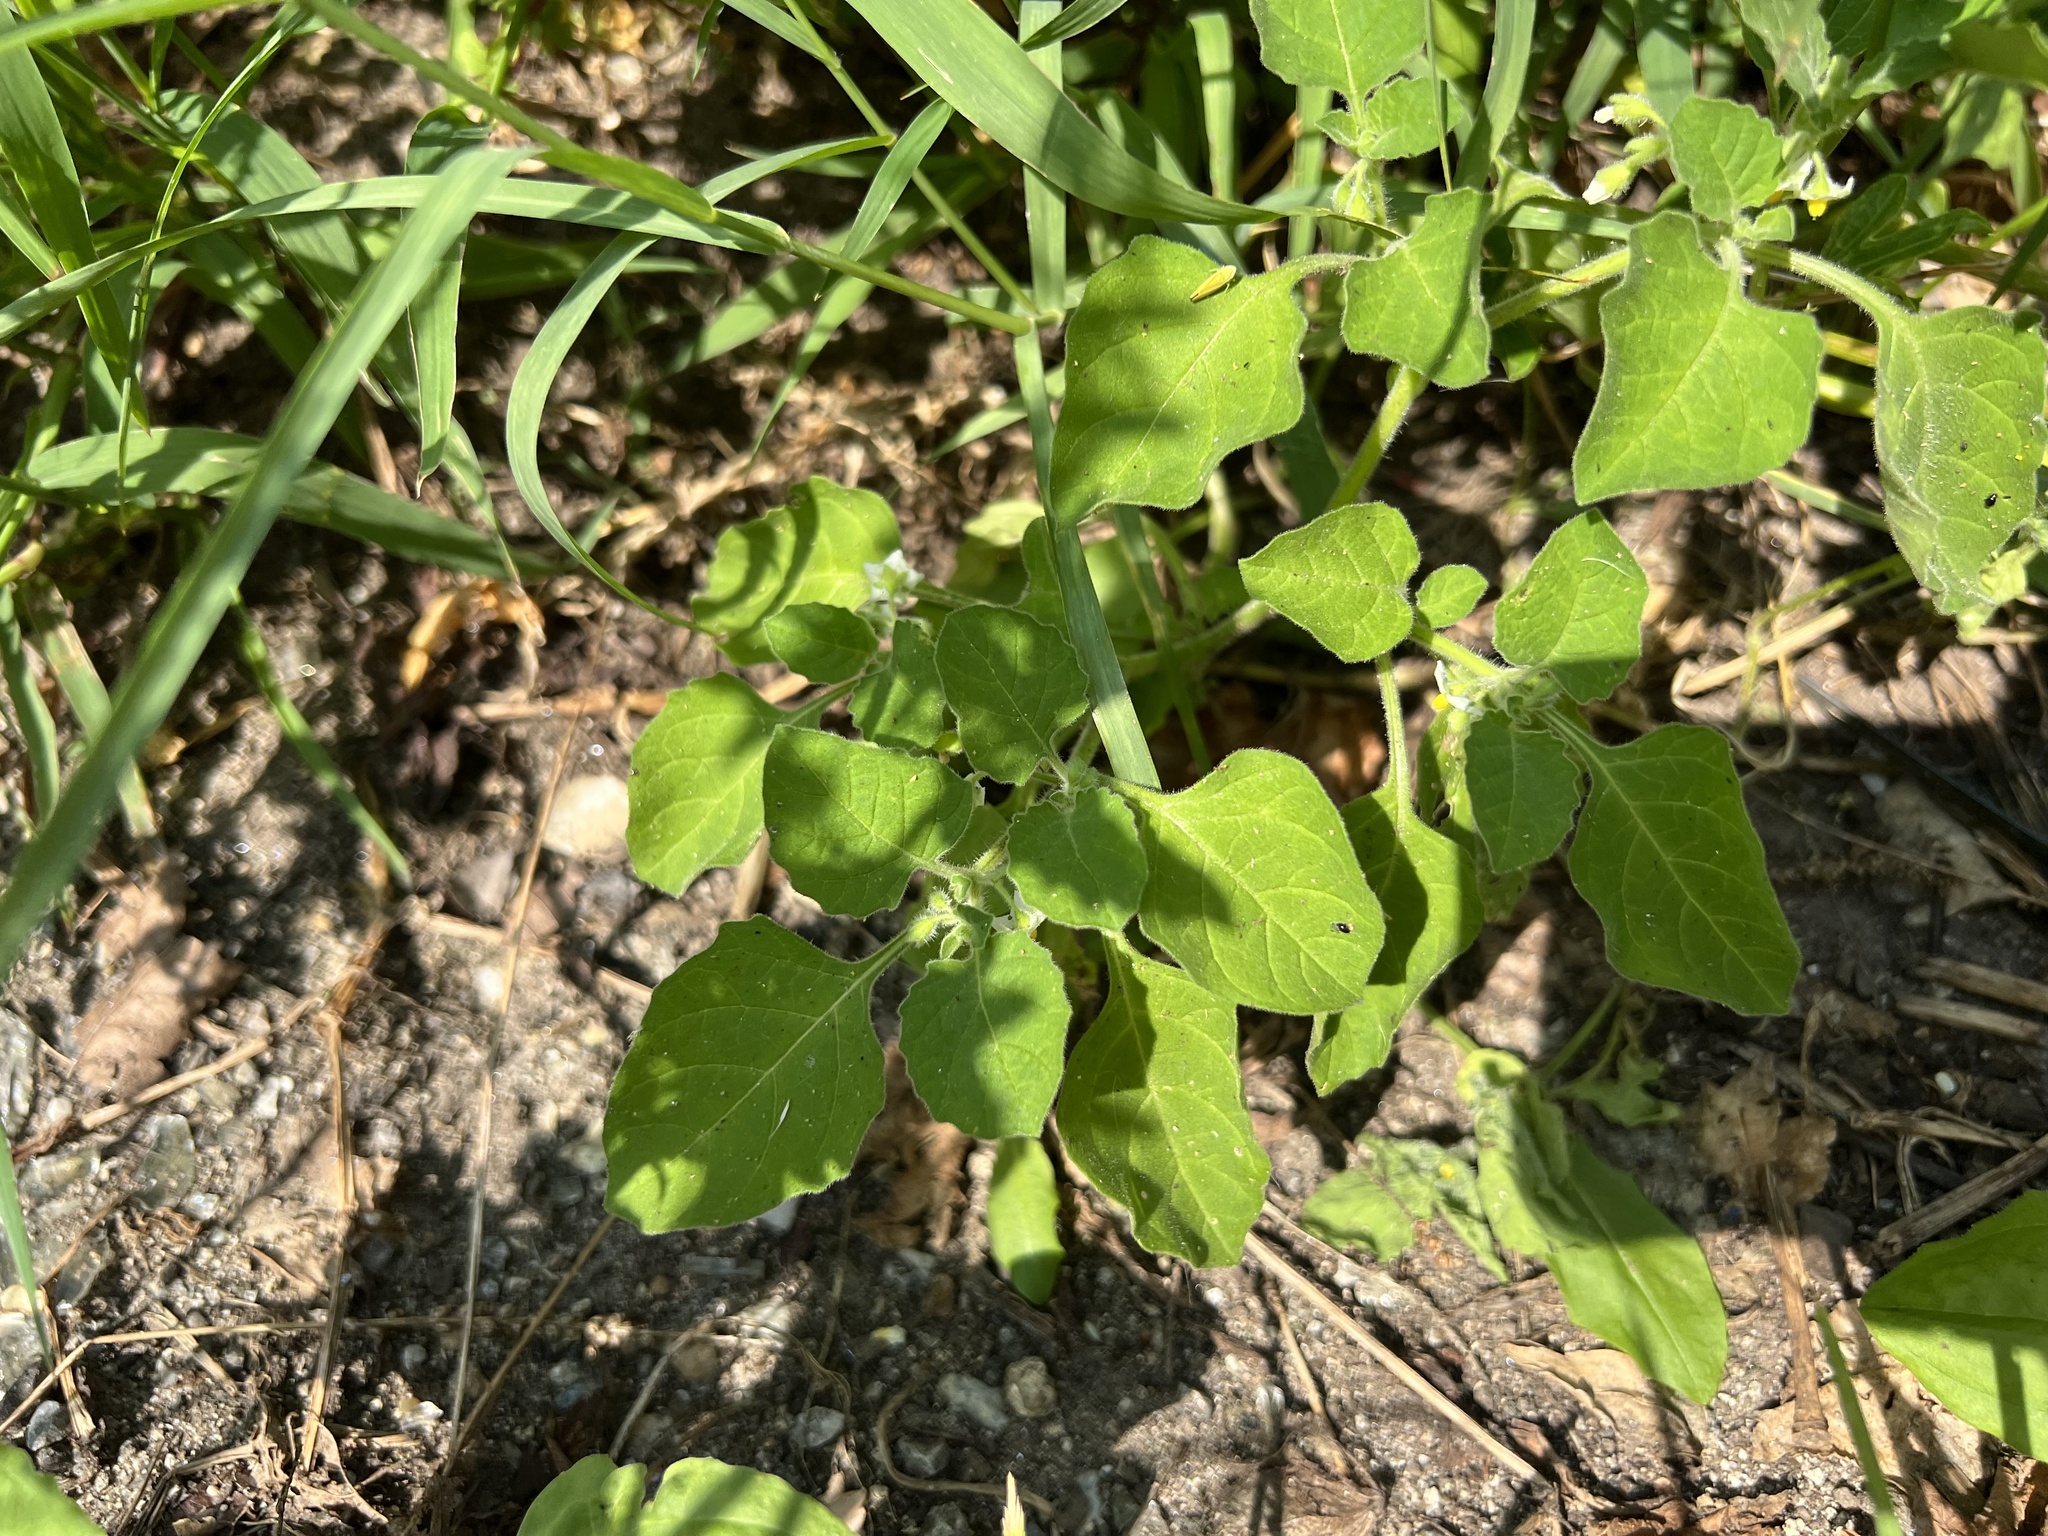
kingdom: Plantae
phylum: Tracheophyta
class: Magnoliopsida
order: Solanales
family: Solanaceae
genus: Solanum
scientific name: Solanum sarrachoides
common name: Leafy-fruited nightshade
